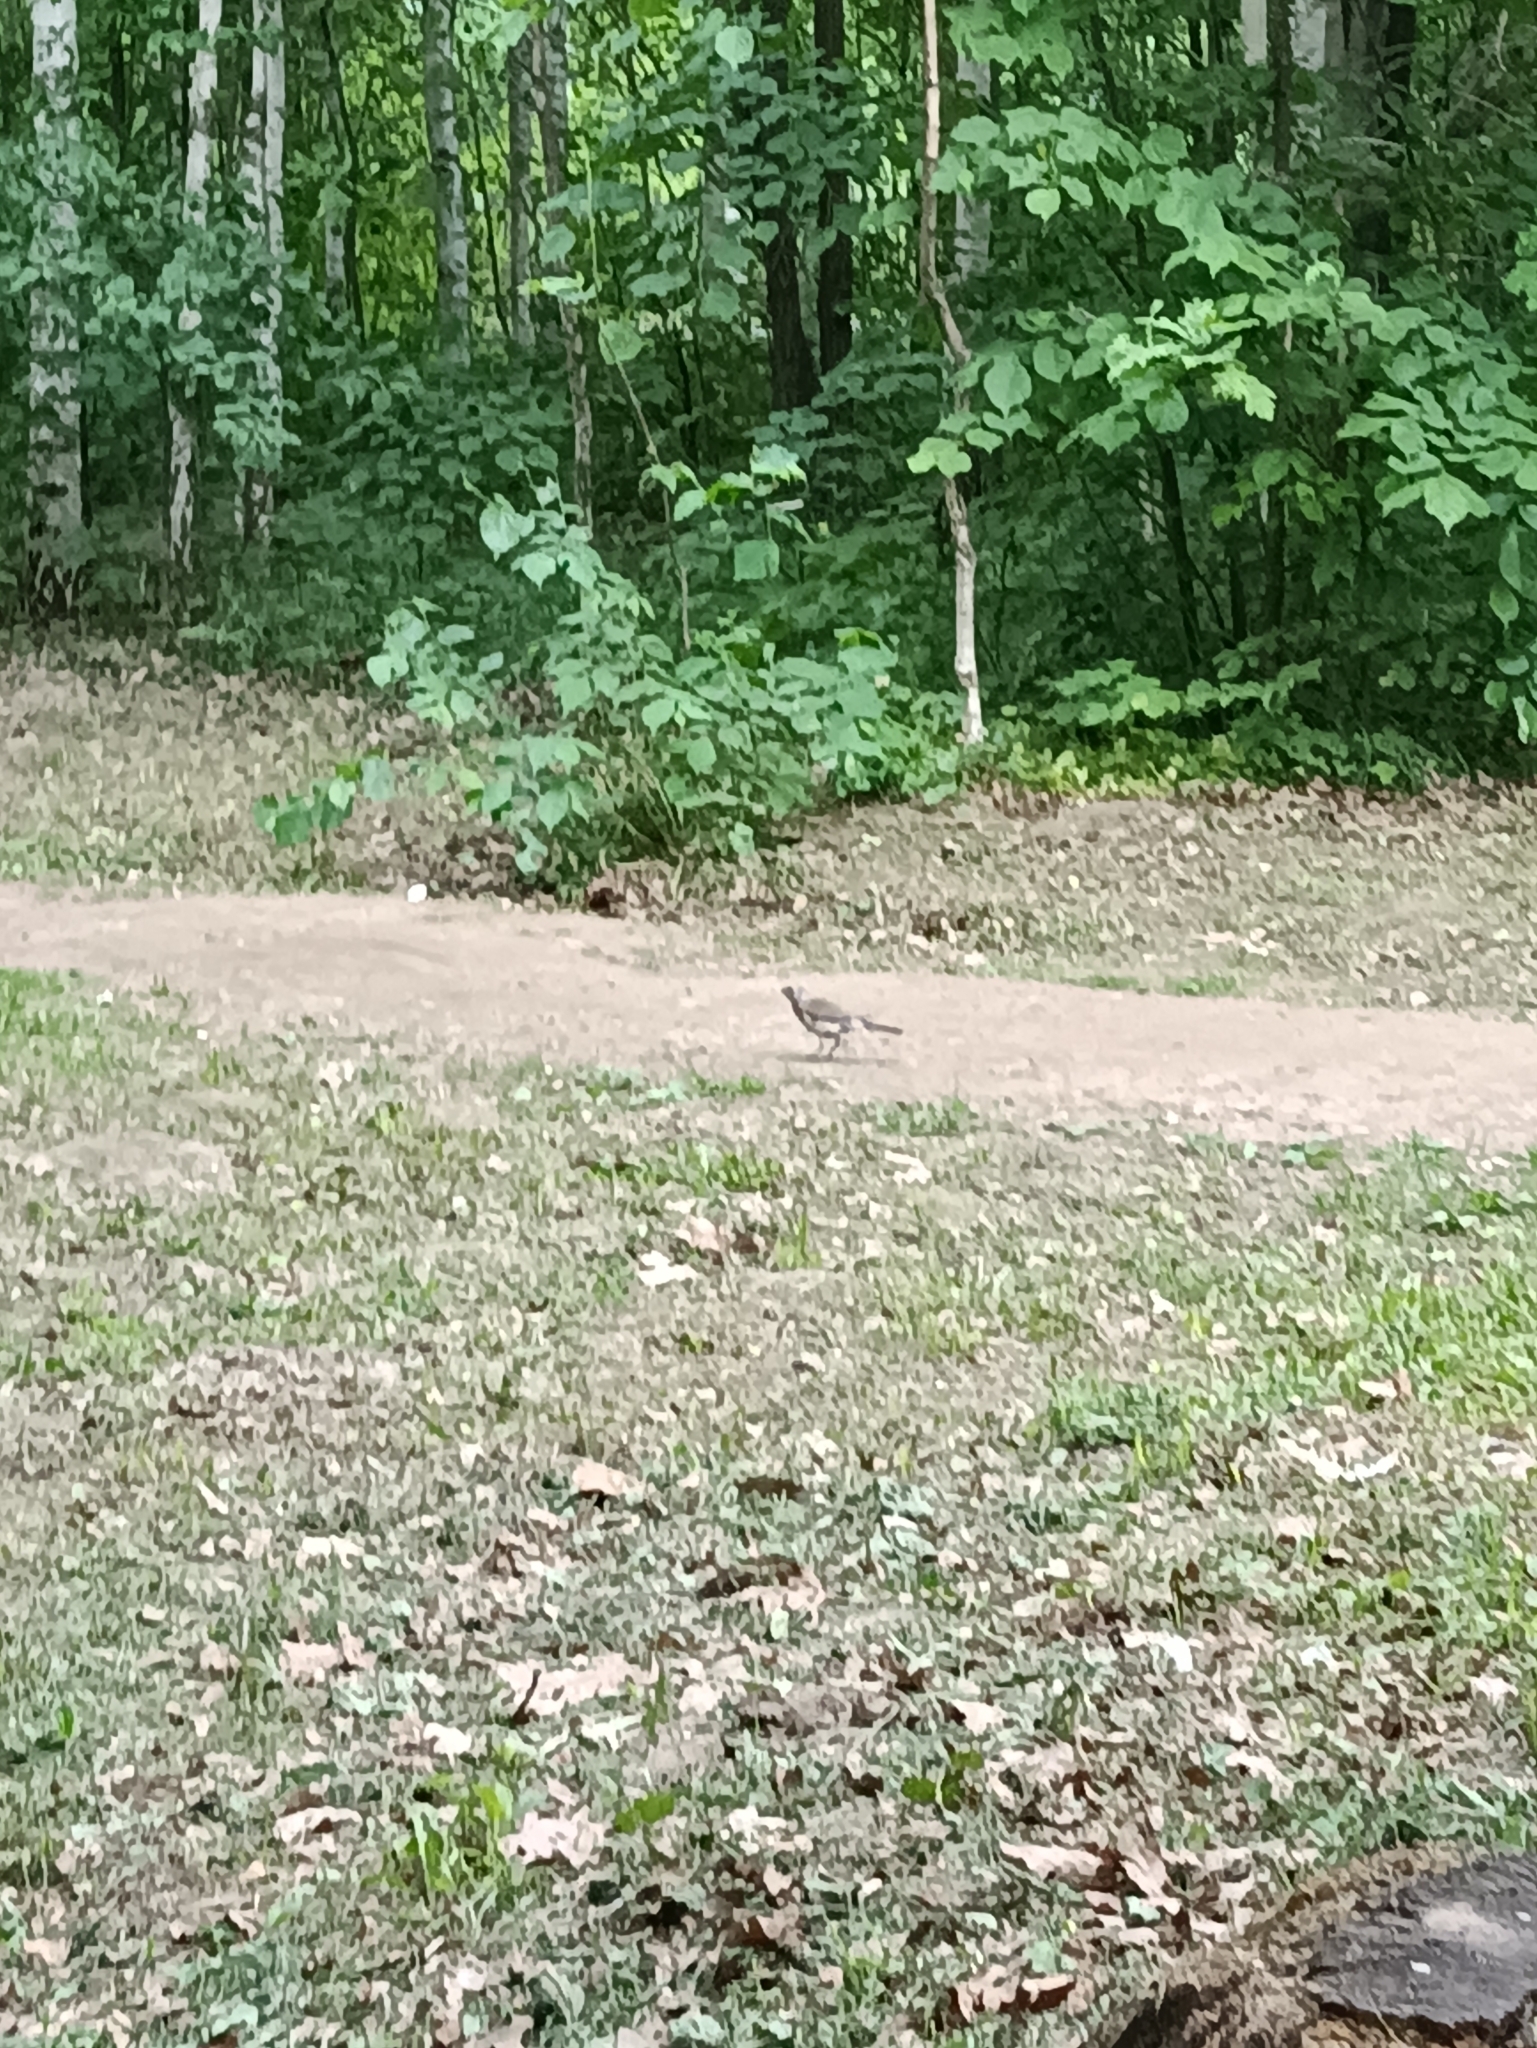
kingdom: Animalia
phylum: Chordata
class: Aves
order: Passeriformes
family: Turdidae
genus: Turdus
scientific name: Turdus pilaris
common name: Fieldfare
